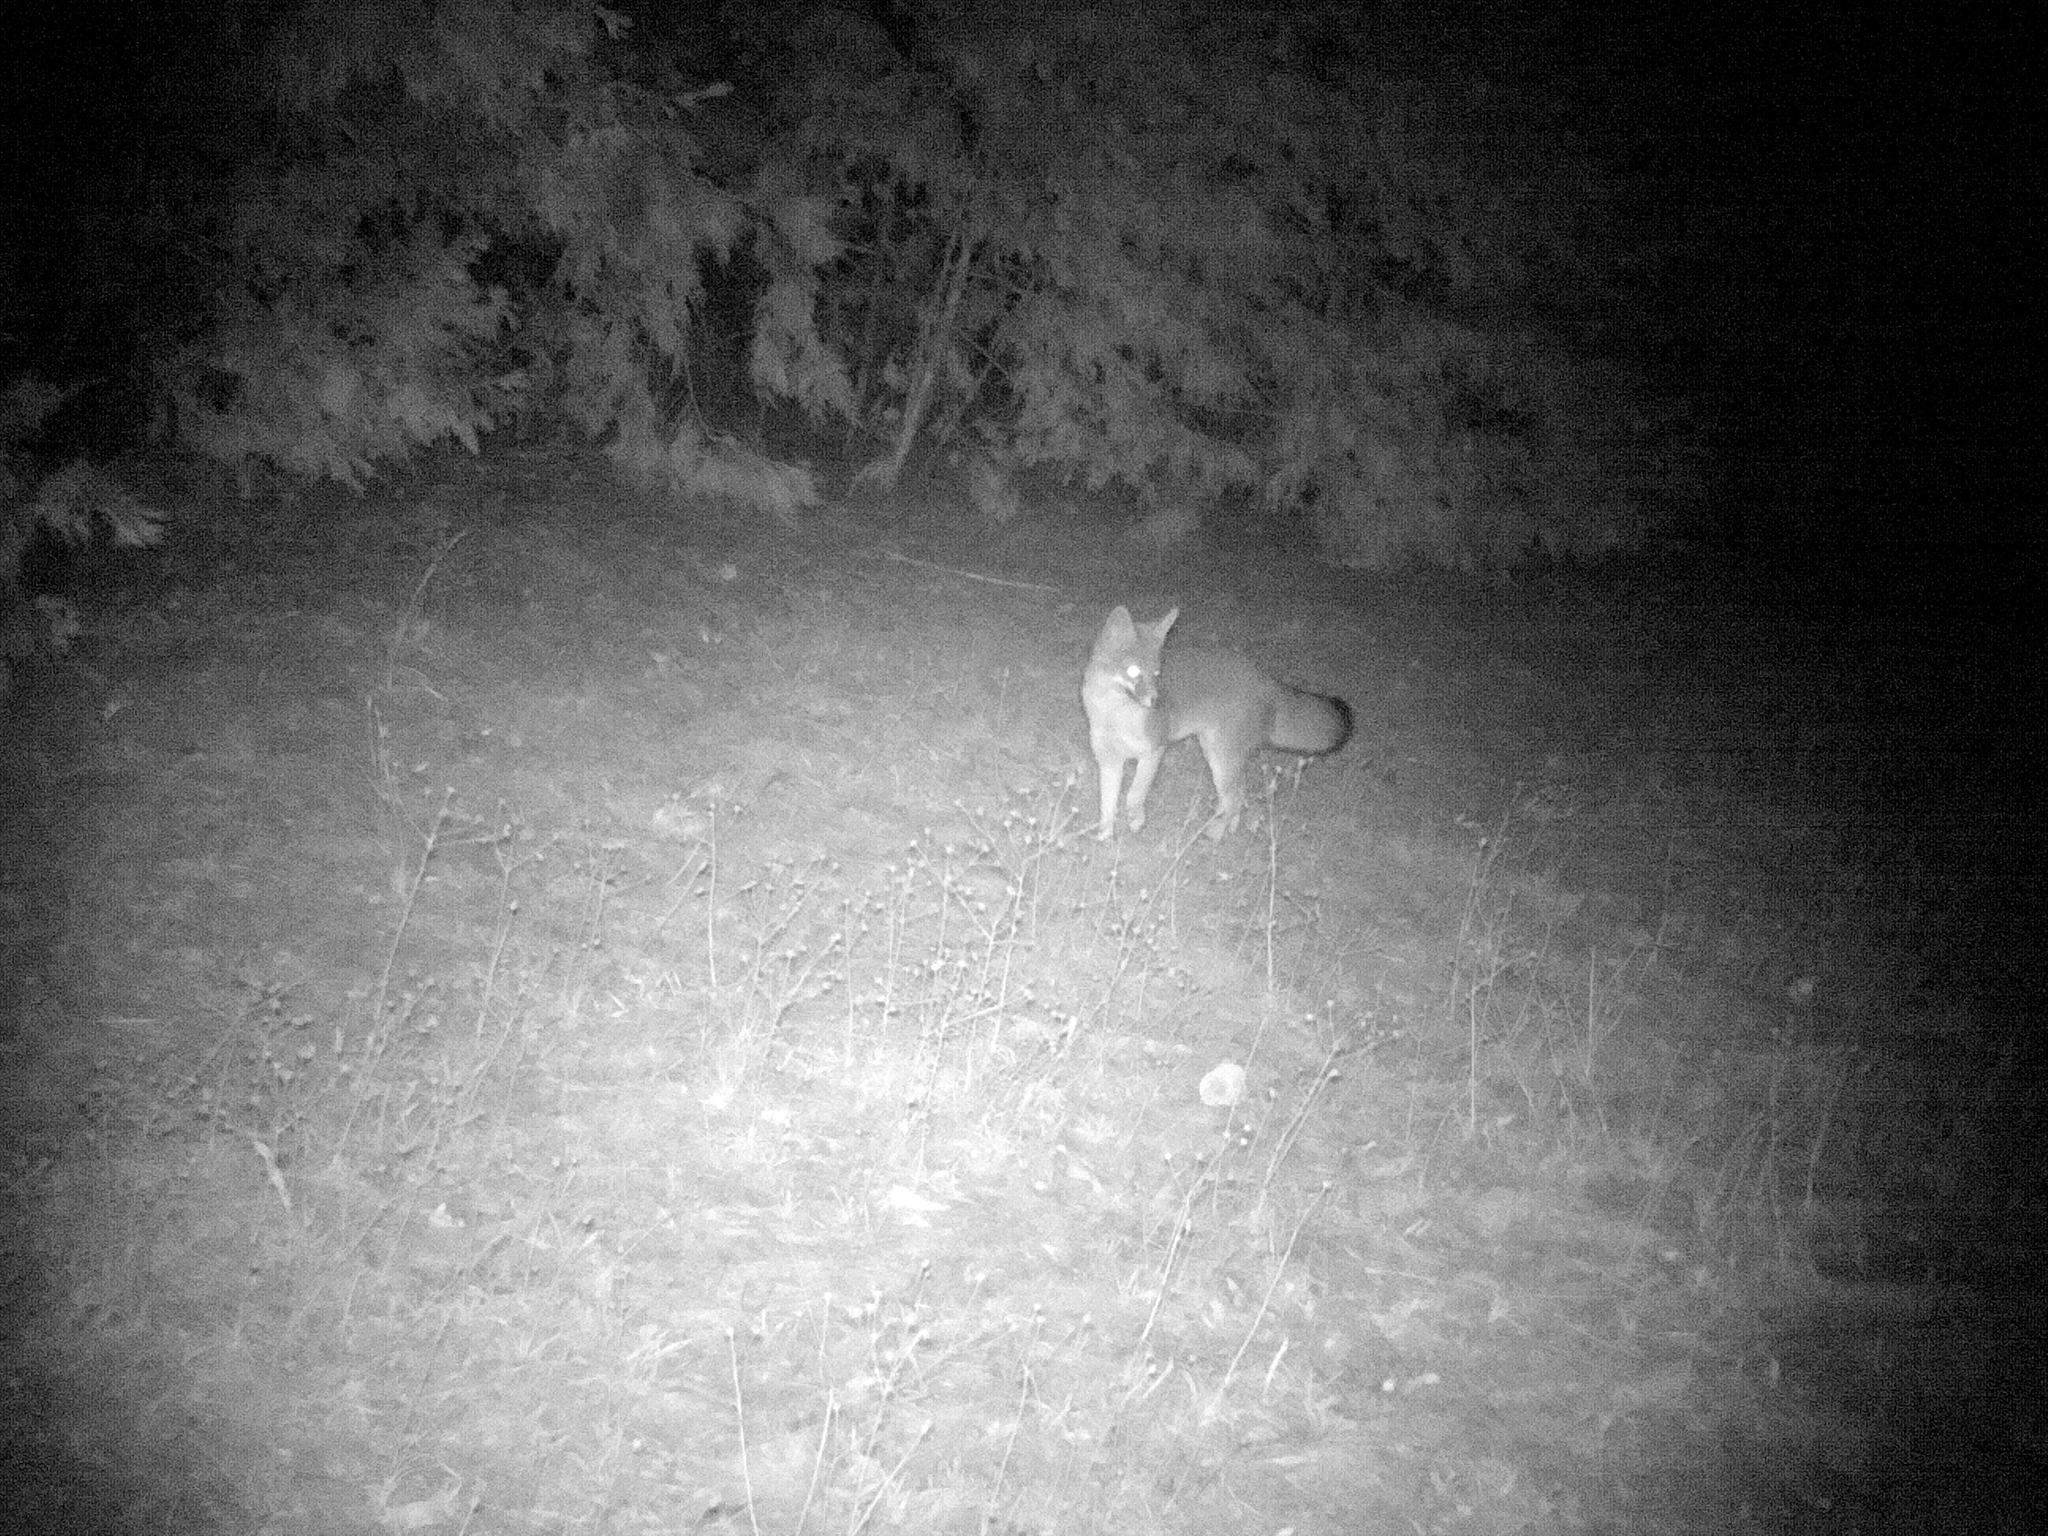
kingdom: Animalia
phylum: Chordata
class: Mammalia
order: Carnivora
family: Canidae
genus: Urocyon
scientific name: Urocyon cinereoargenteus
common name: Gray fox
